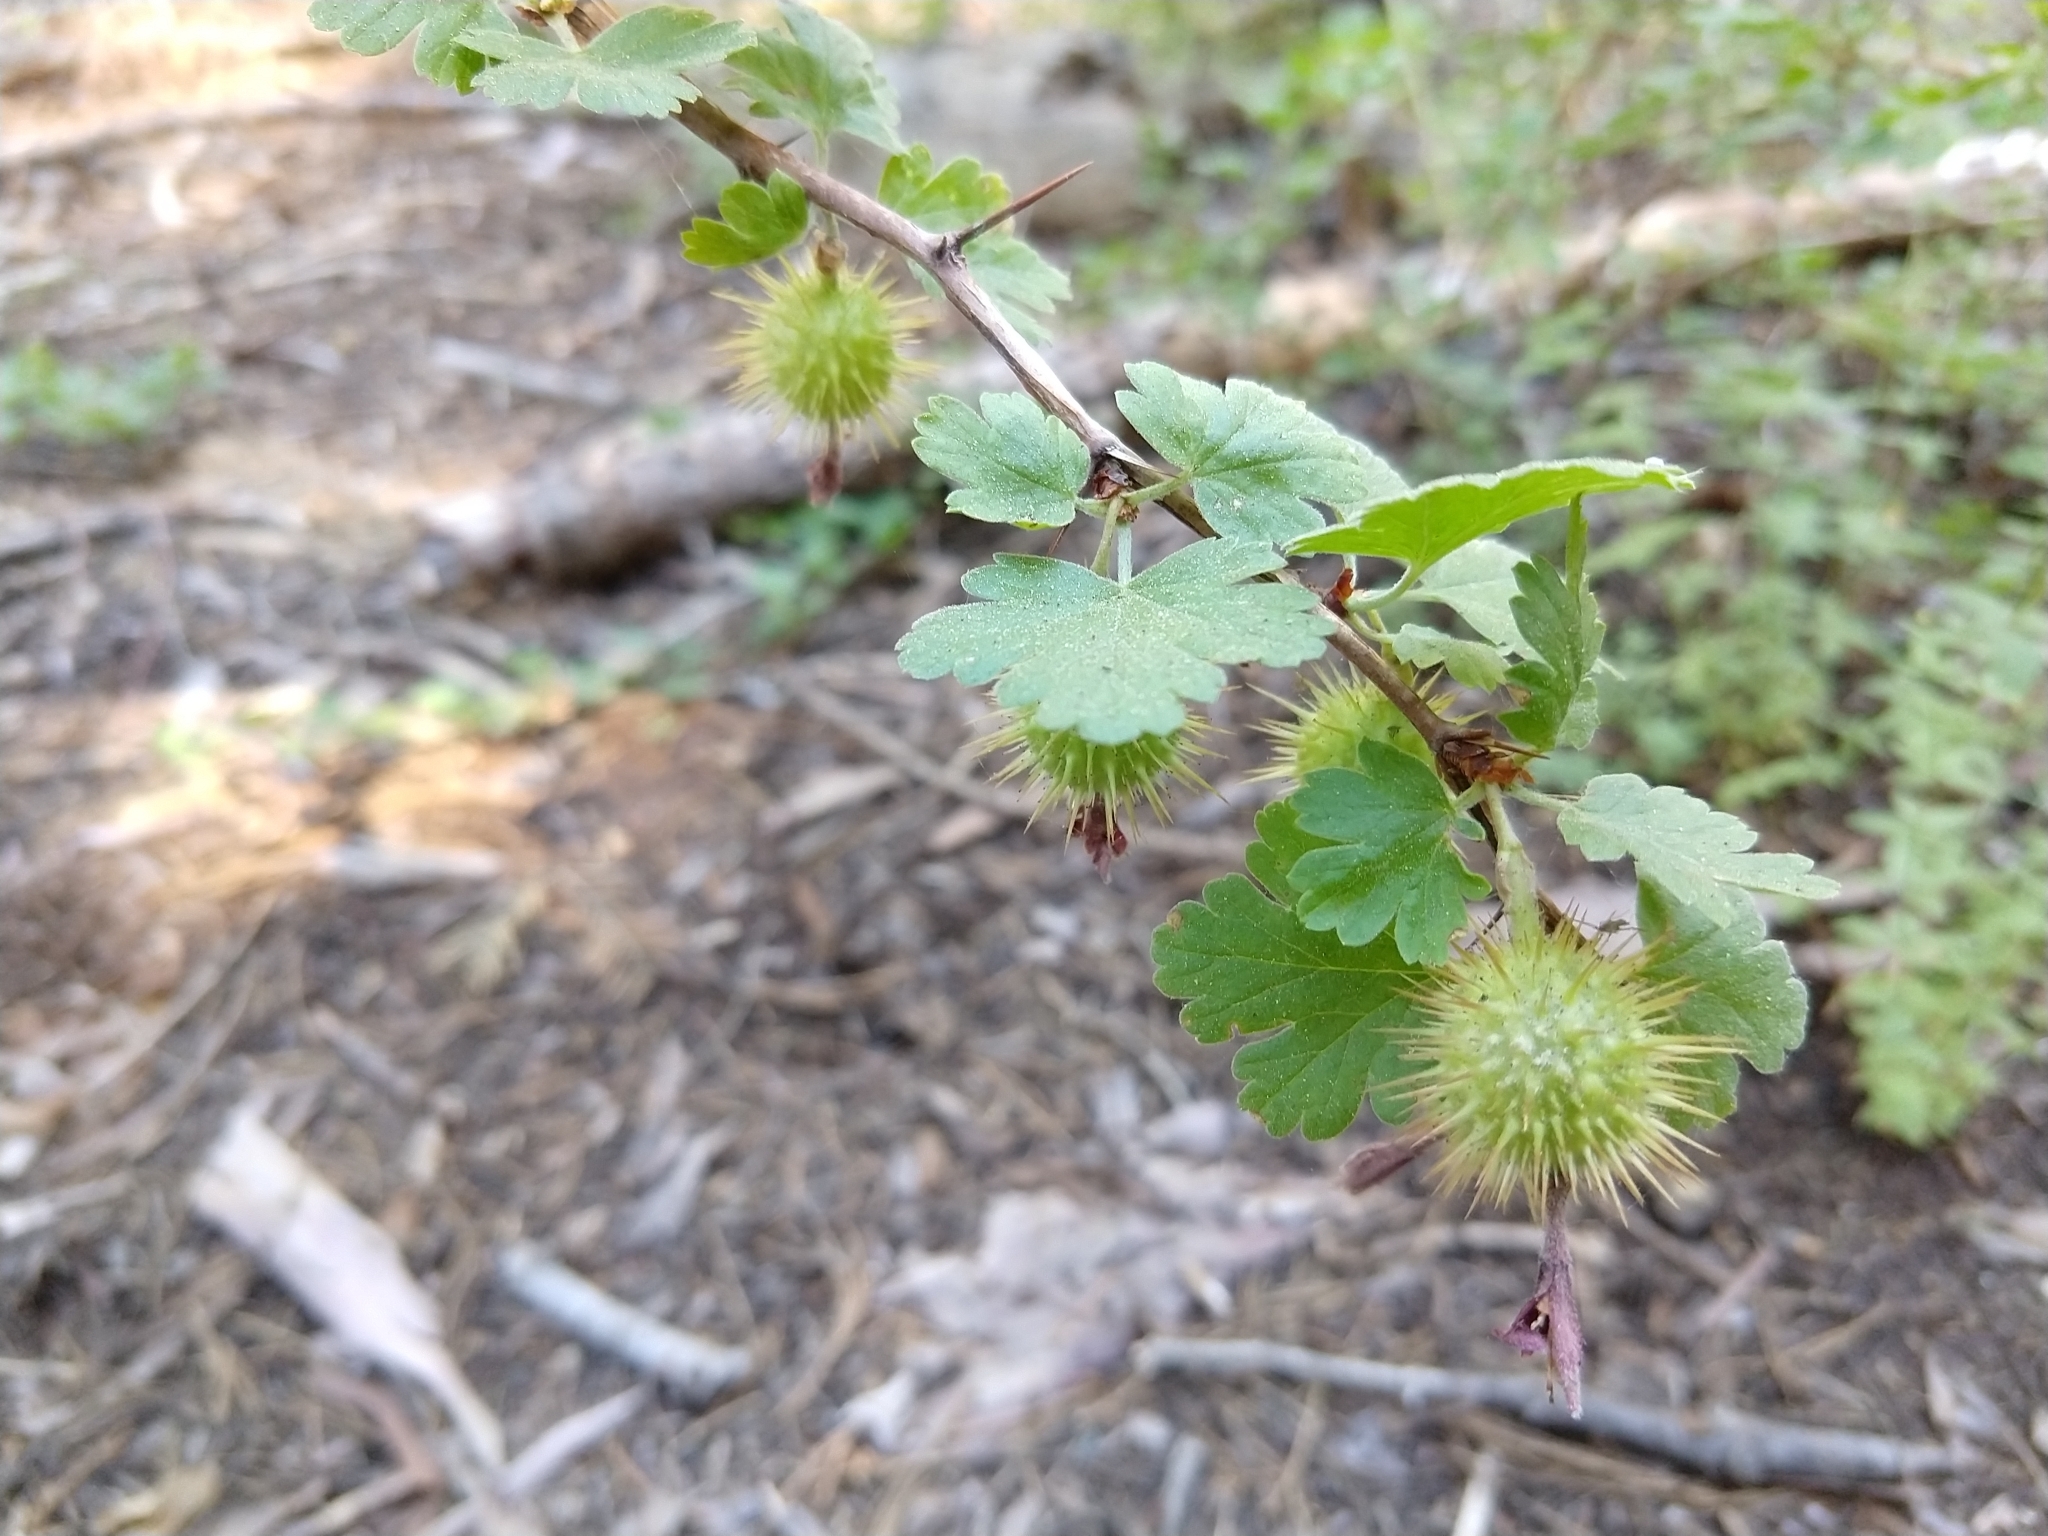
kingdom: Plantae
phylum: Tracheophyta
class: Magnoliopsida
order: Saxifragales
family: Grossulariaceae
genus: Ribes
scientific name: Ribes roezlii
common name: Sierra gooseberry
